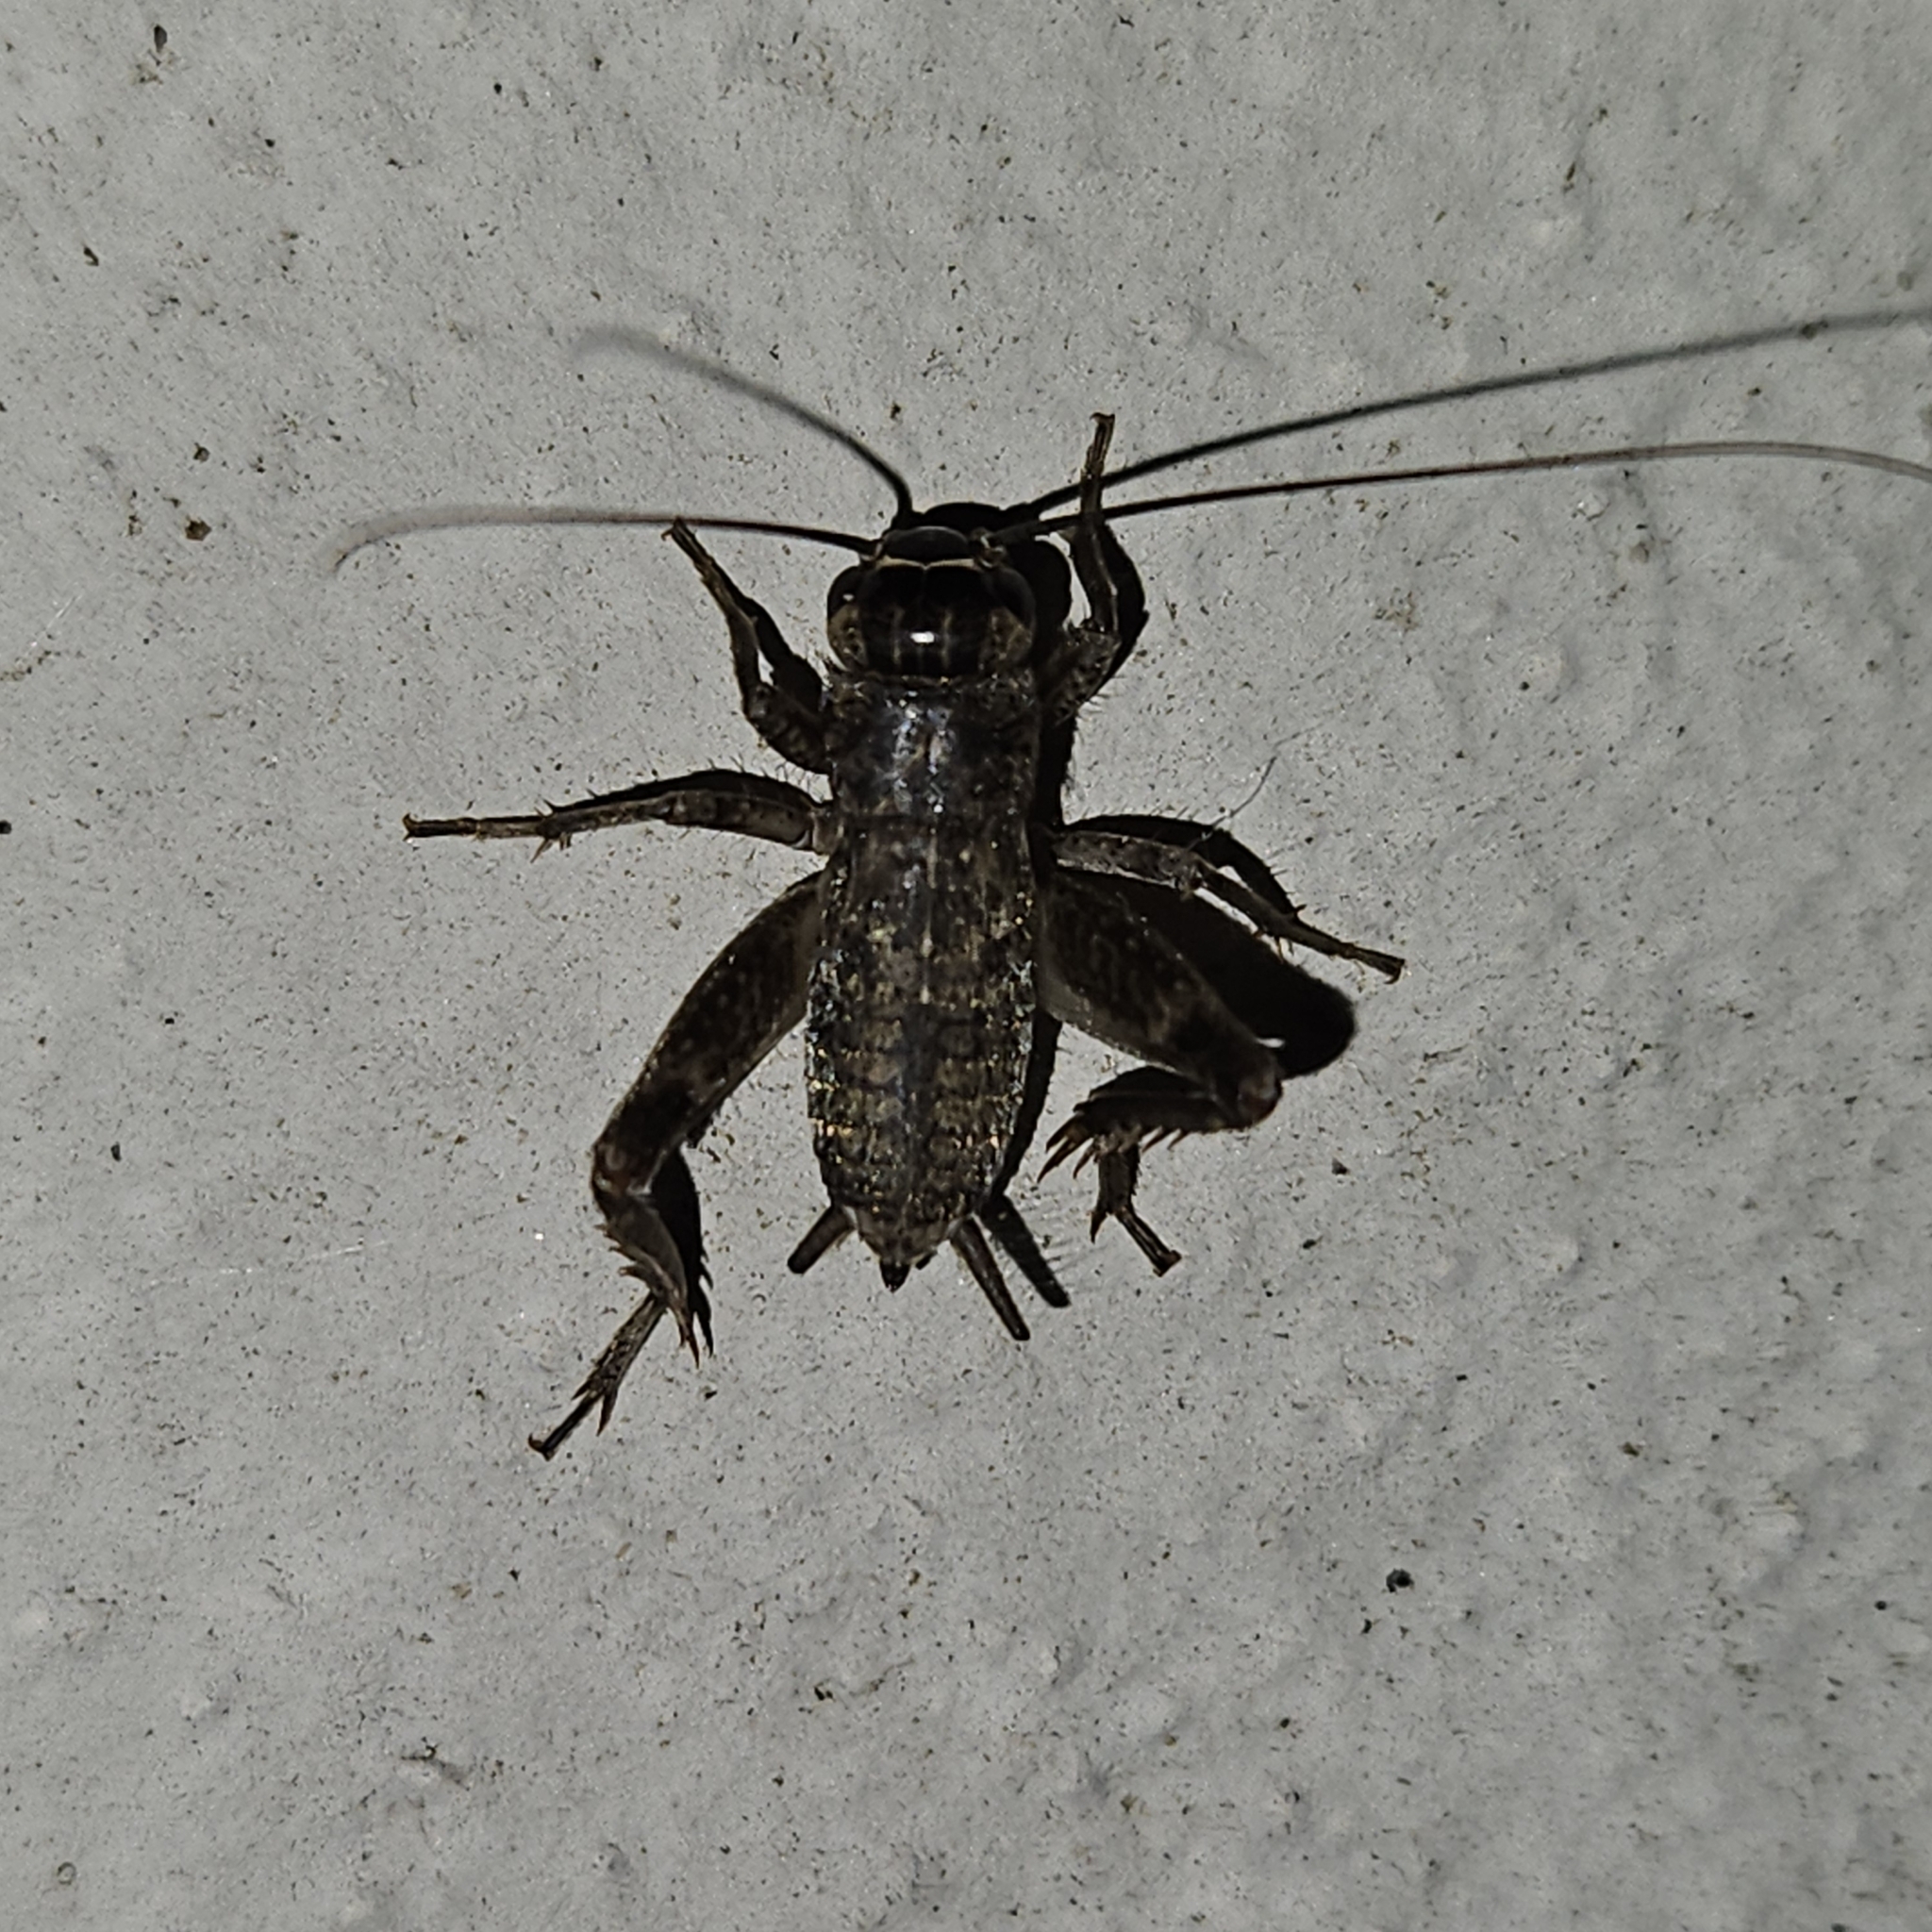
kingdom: Animalia
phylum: Arthropoda
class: Insecta
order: Orthoptera
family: Gryllidae
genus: Eumodicogryllus
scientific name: Eumodicogryllus bordigalensis
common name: Bordeaux cricket
